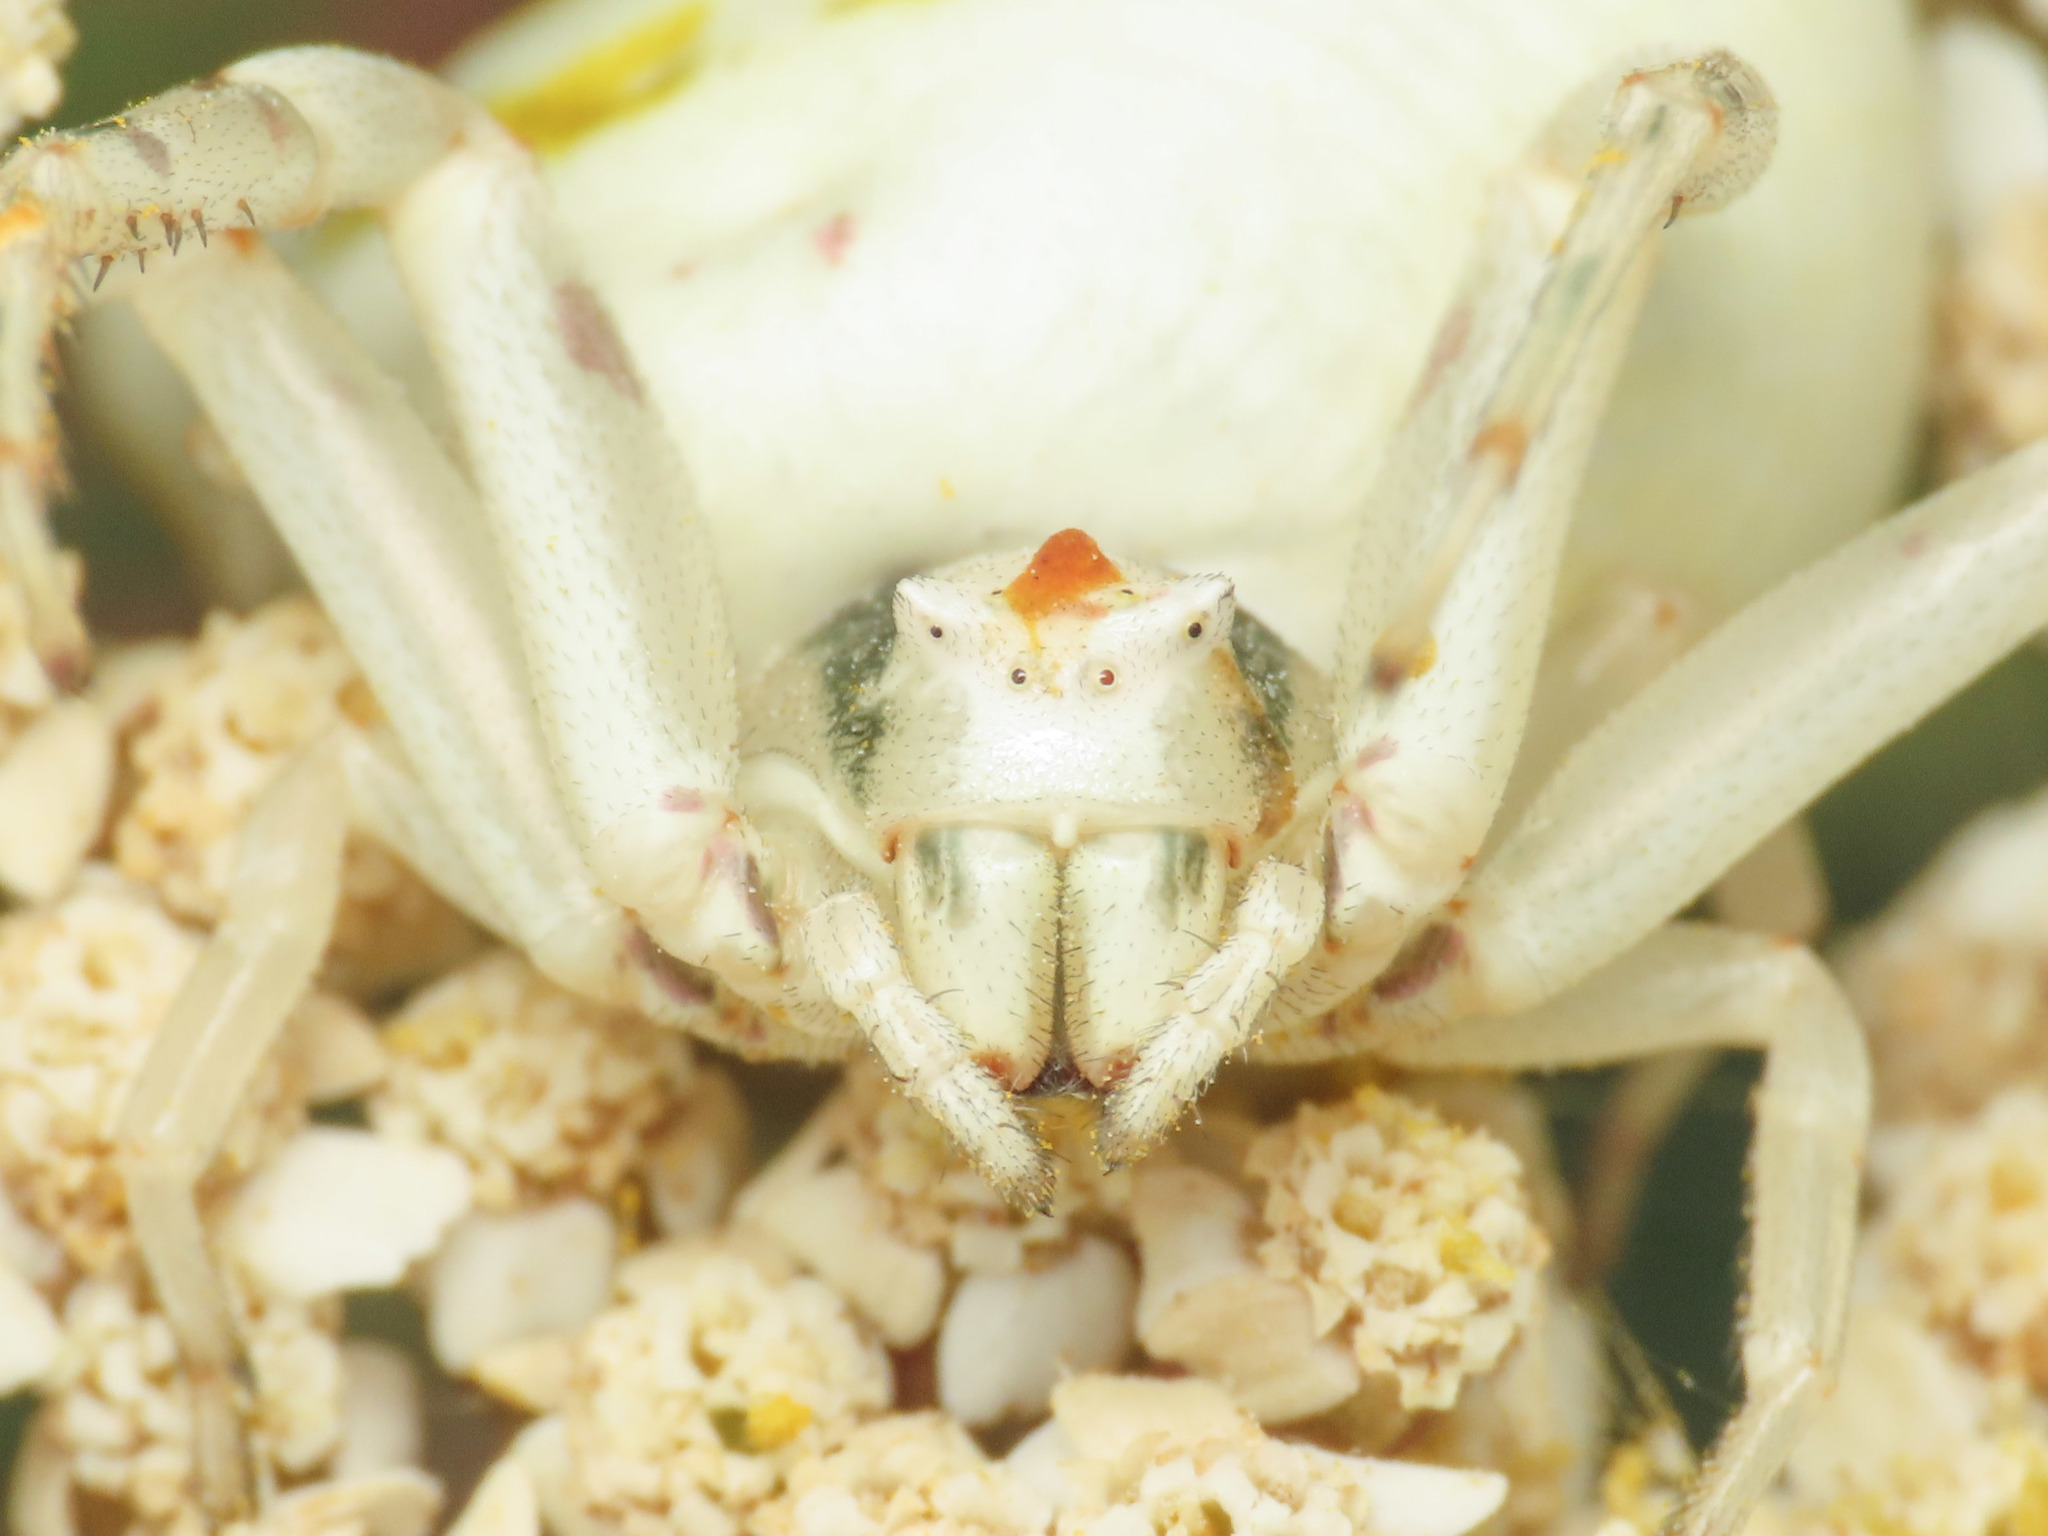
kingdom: Animalia
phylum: Arthropoda
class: Arachnida
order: Araneae
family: Thomisidae
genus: Thomisus
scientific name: Thomisus onustus
